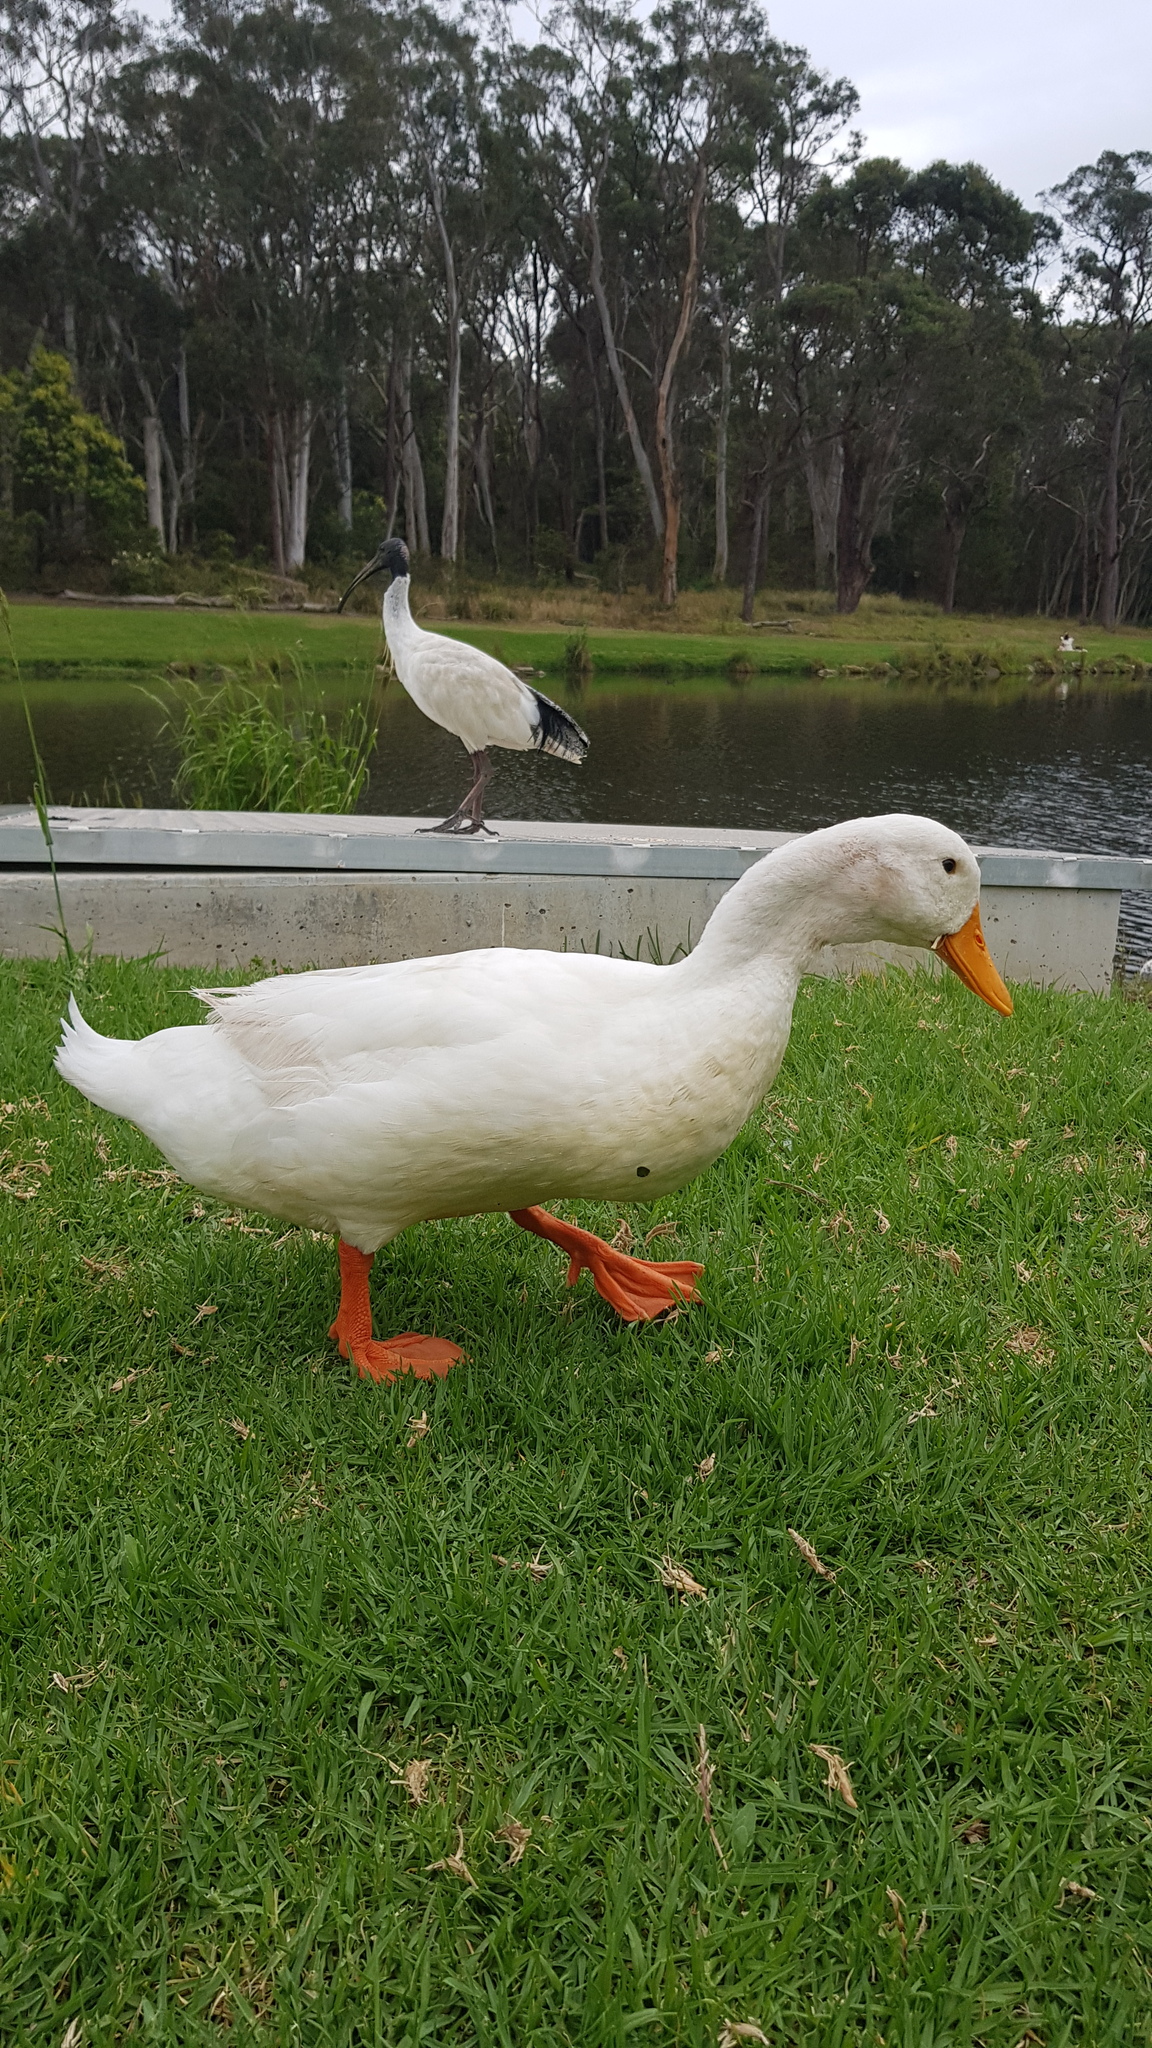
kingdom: Animalia
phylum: Chordata
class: Aves
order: Anseriformes
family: Anatidae
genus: Anas
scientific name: Anas platyrhynchos
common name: Mallard
